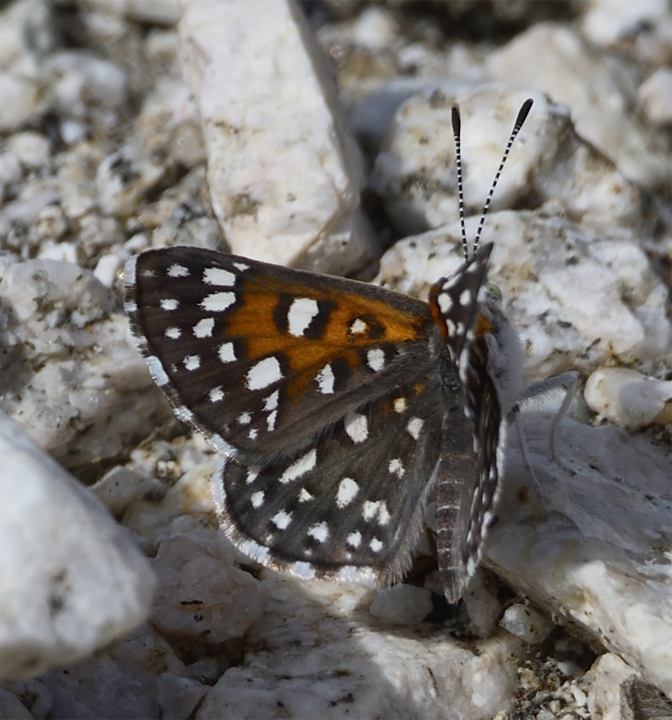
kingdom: Animalia
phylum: Arthropoda
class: Insecta
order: Lepidoptera
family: Riodinidae
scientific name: Riodinidae
